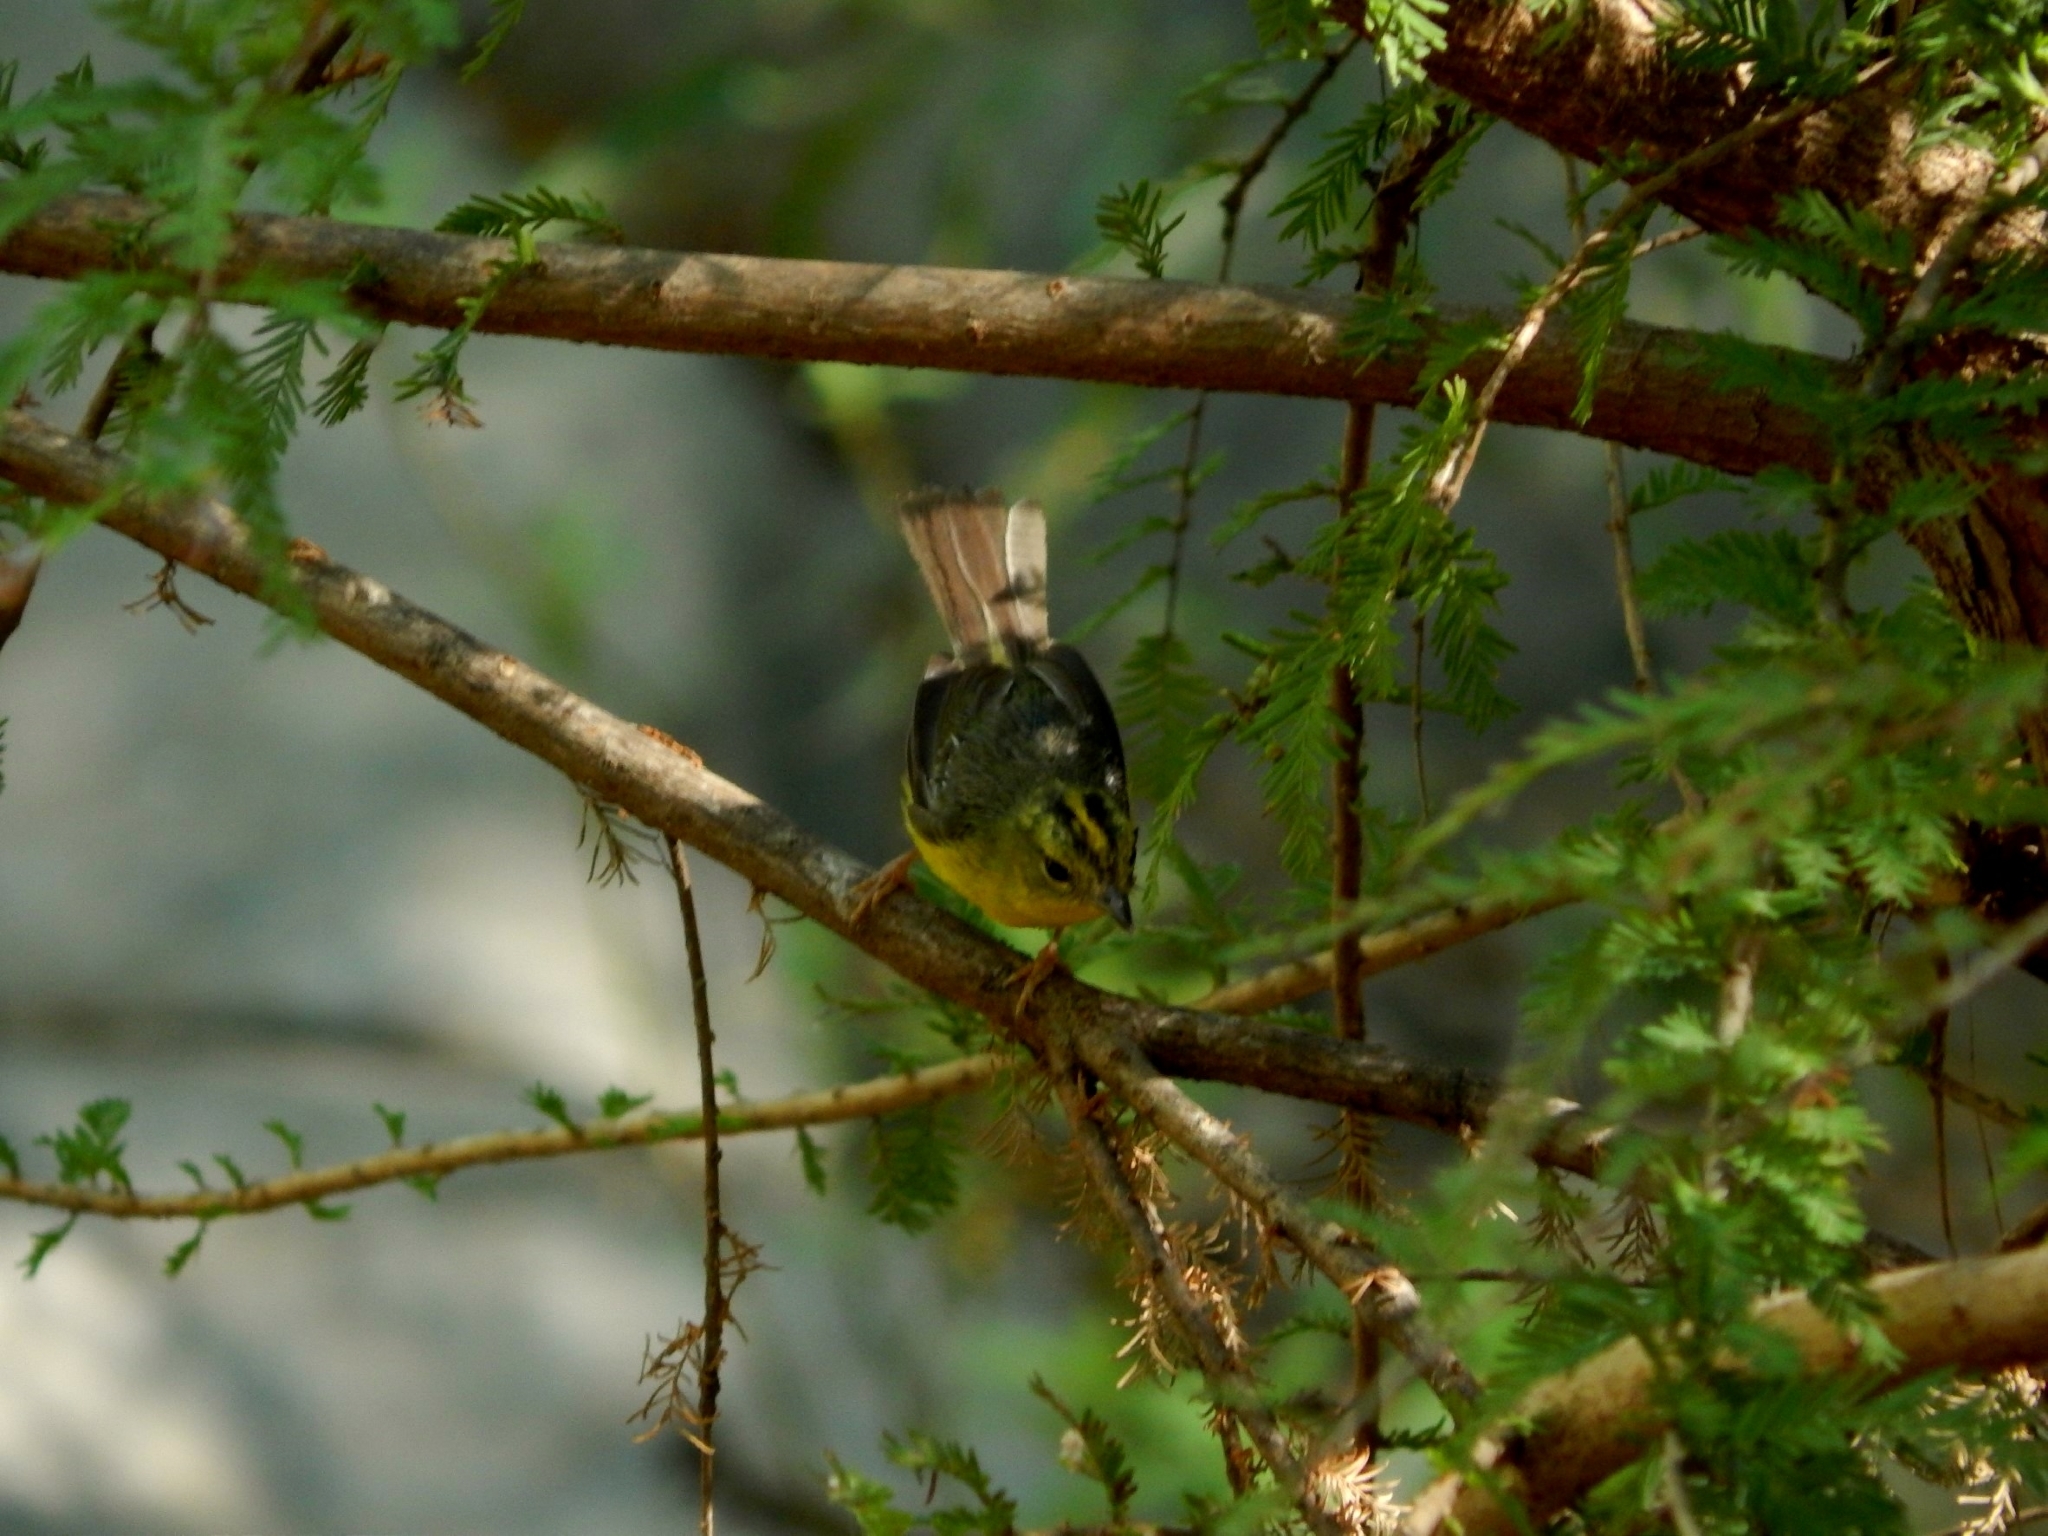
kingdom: Animalia
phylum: Chordata
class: Aves
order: Passeriformes
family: Parulidae
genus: Basileuterus
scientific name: Basileuterus culicivorus
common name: Golden-crowned warbler
